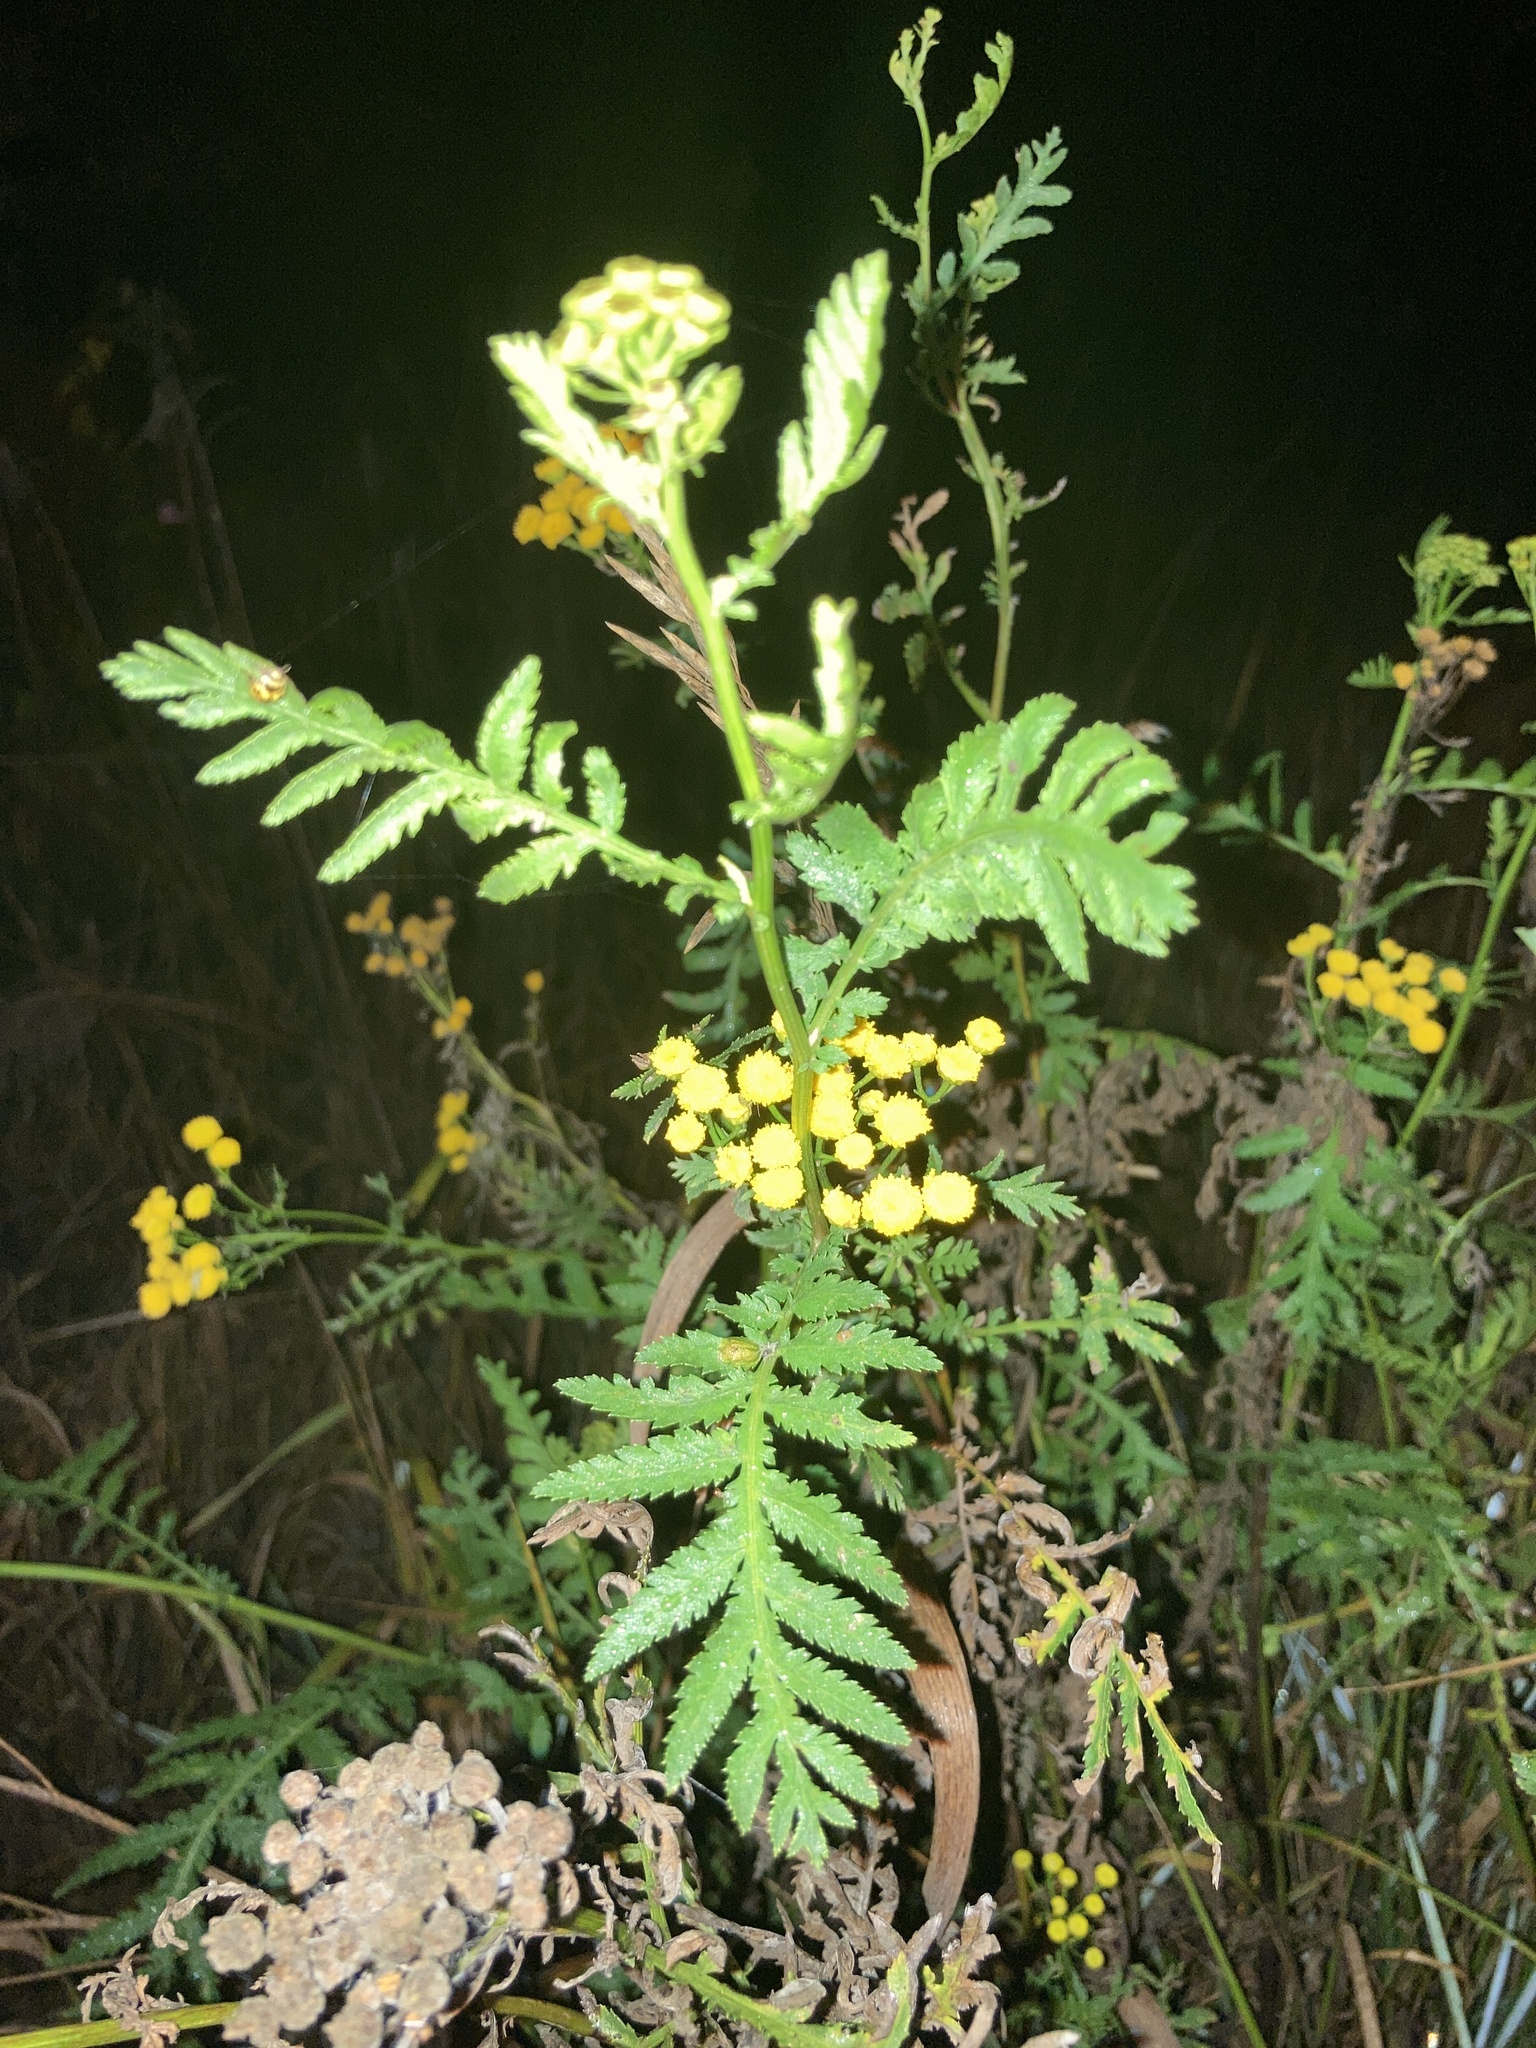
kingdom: Plantae
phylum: Tracheophyta
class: Magnoliopsida
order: Asterales
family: Asteraceae
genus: Tanacetum
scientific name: Tanacetum vulgare
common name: Common tansy
